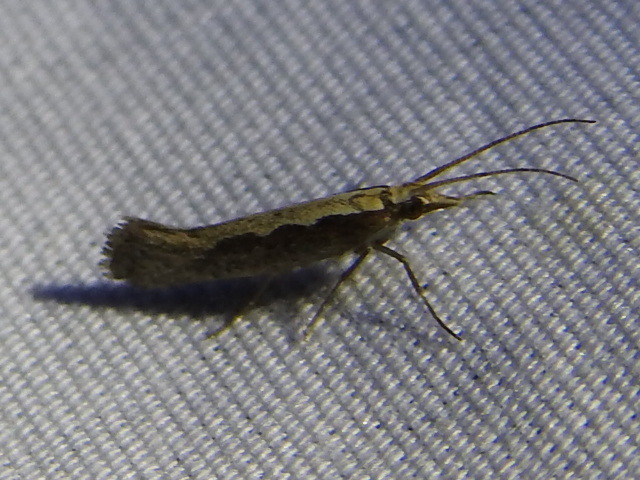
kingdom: Animalia
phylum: Arthropoda
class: Insecta
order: Lepidoptera
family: Plutellidae
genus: Plutella
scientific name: Plutella xylostella
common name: Diamond-back moth
